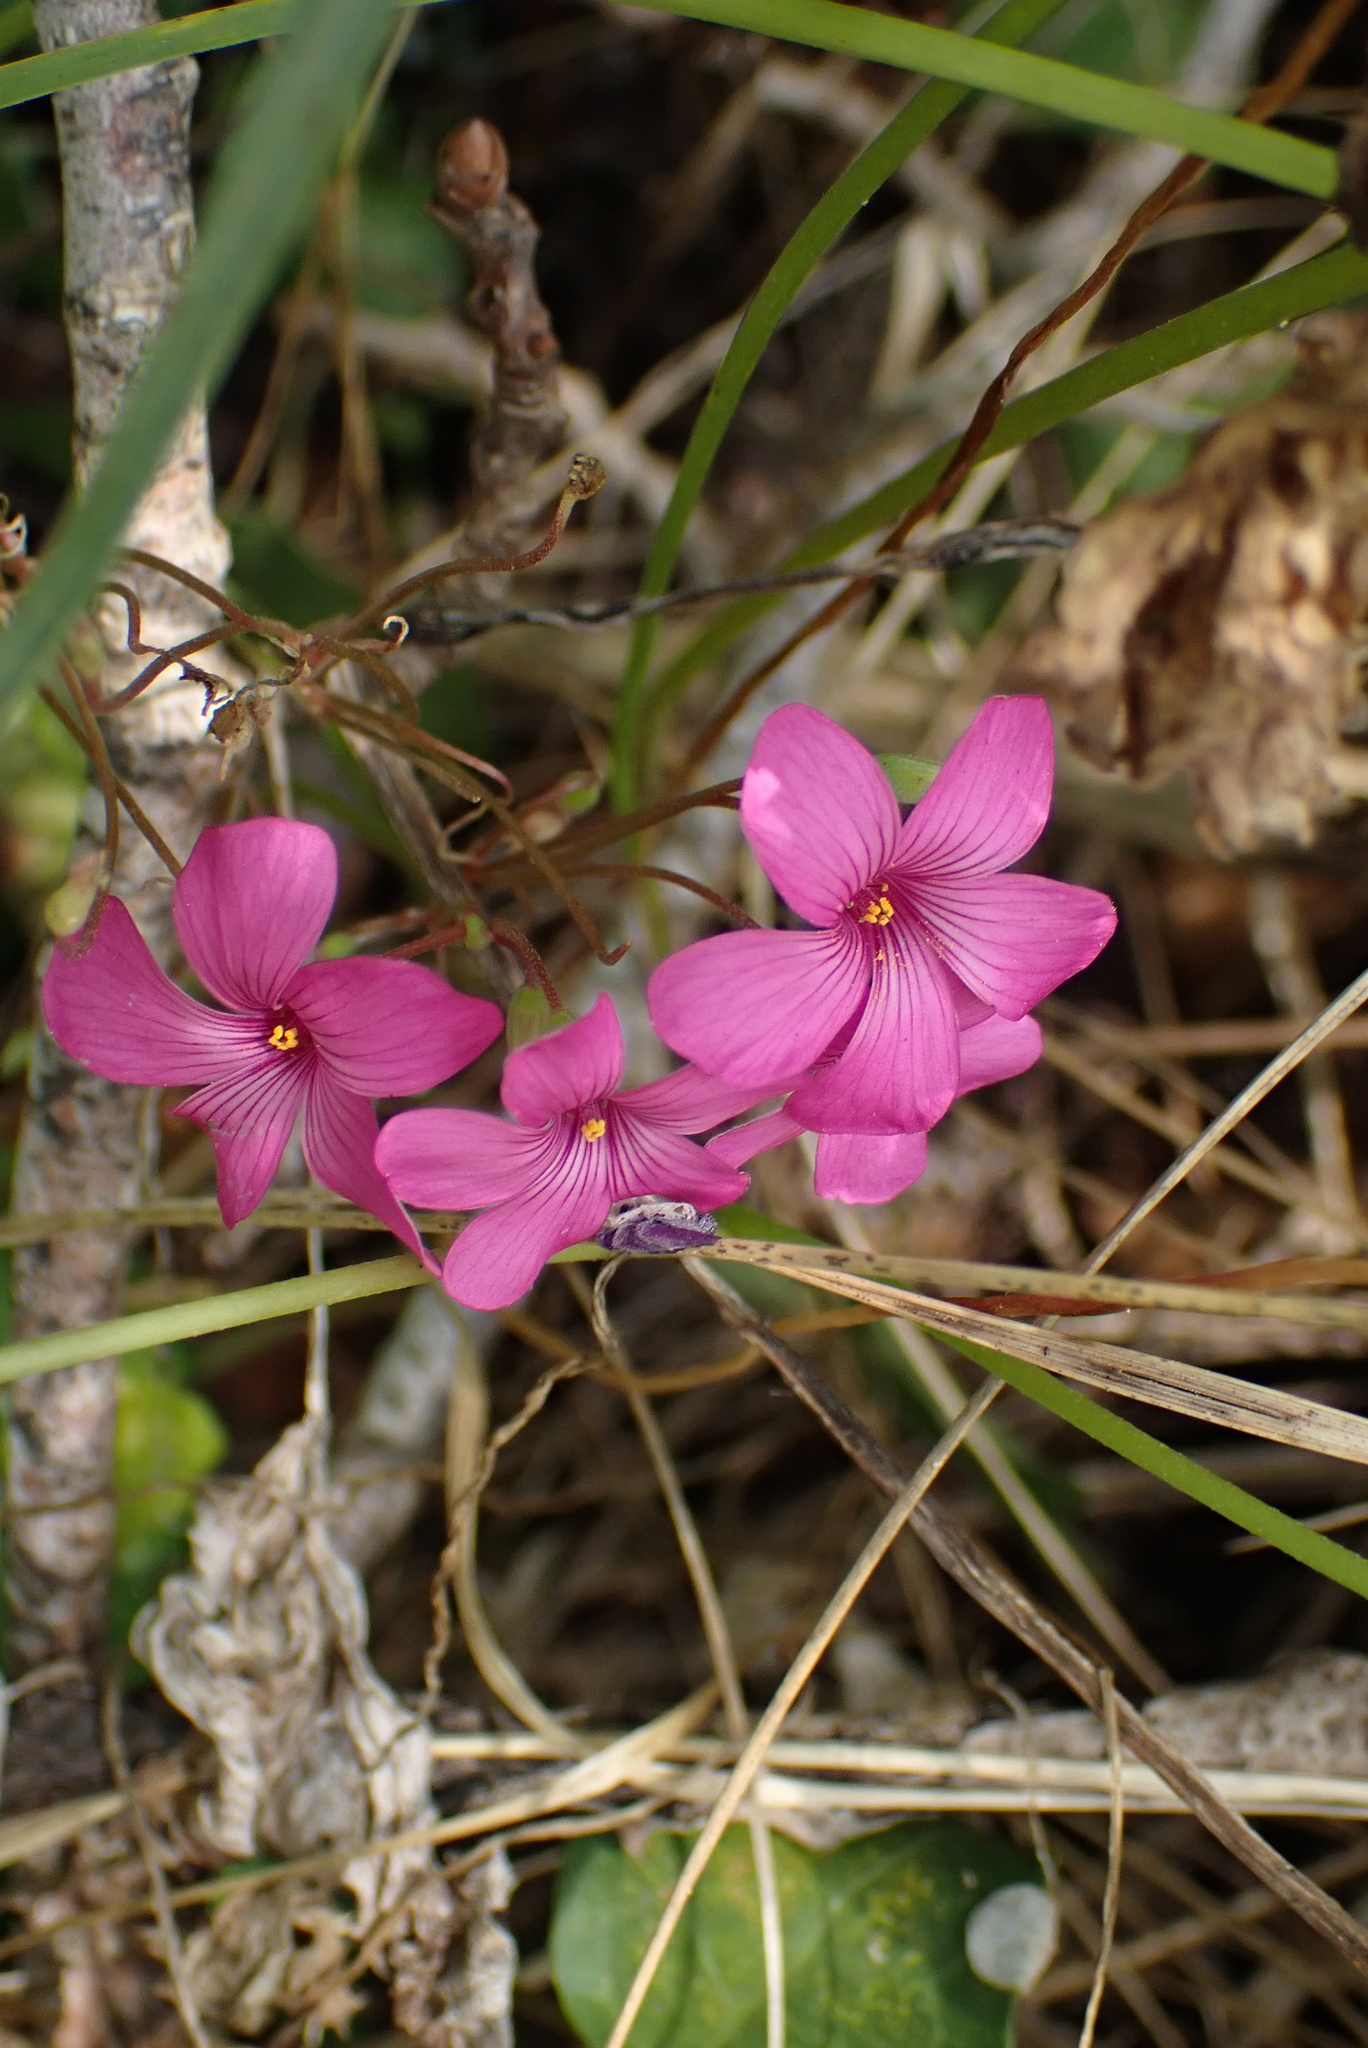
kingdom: Plantae
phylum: Tracheophyta
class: Magnoliopsida
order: Oxalidales
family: Oxalidaceae
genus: Oxalis
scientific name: Oxalis articulata
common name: Pink-sorrel
